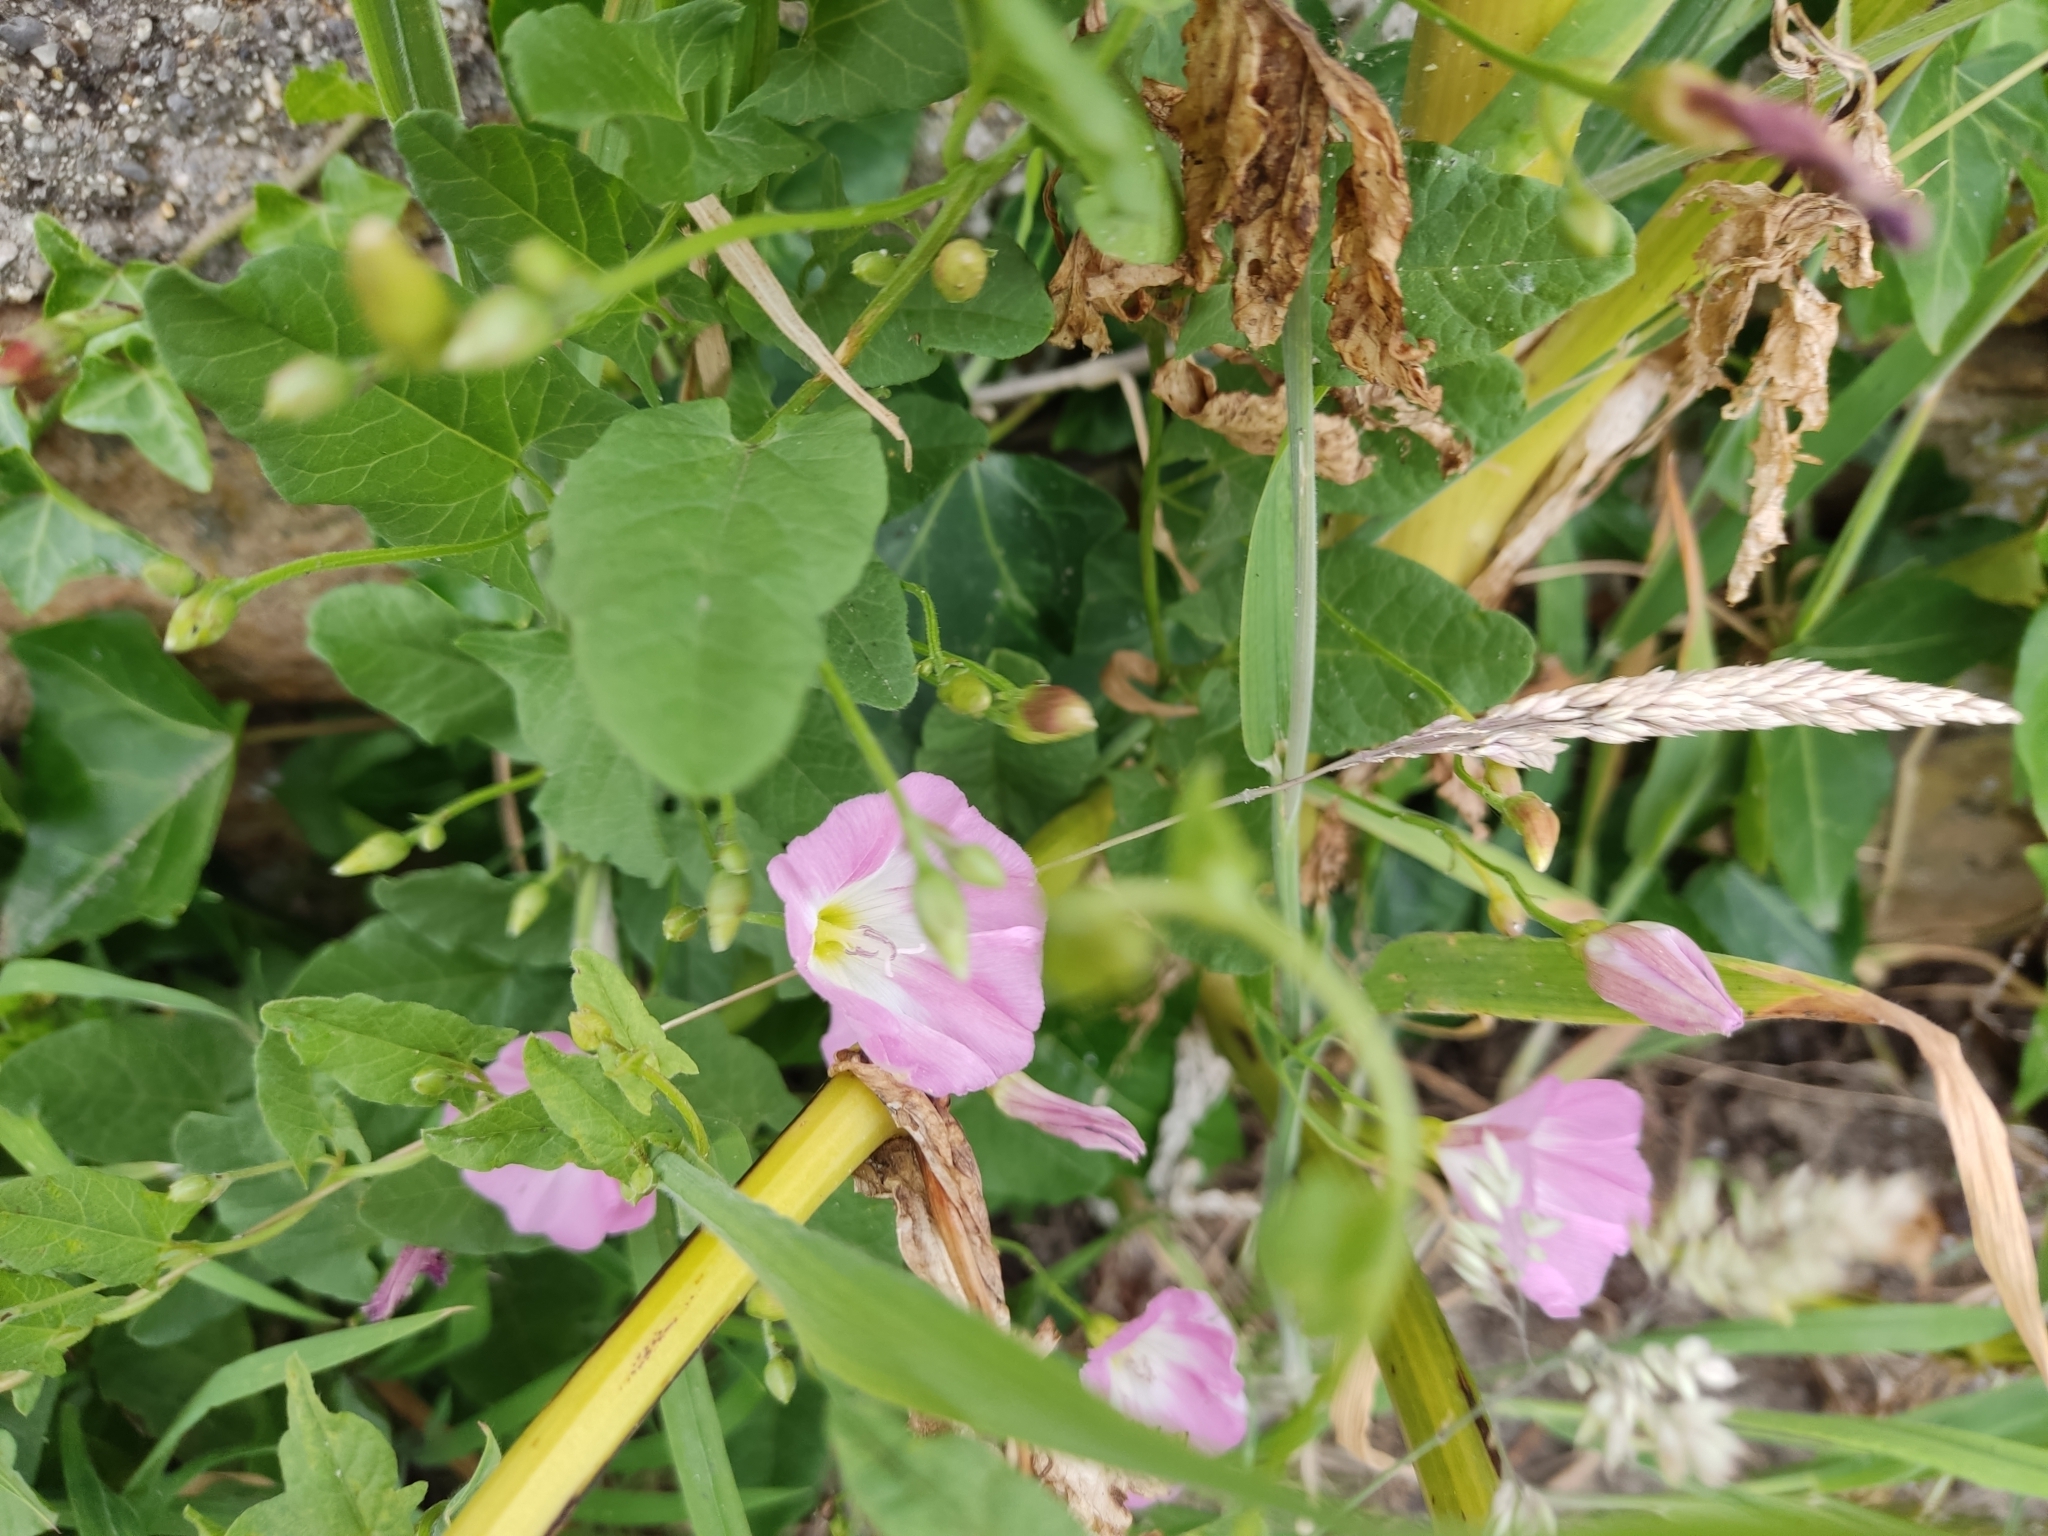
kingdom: Plantae
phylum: Tracheophyta
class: Magnoliopsida
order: Solanales
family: Convolvulaceae
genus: Convolvulus
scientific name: Convolvulus arvensis
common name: Field bindweed
